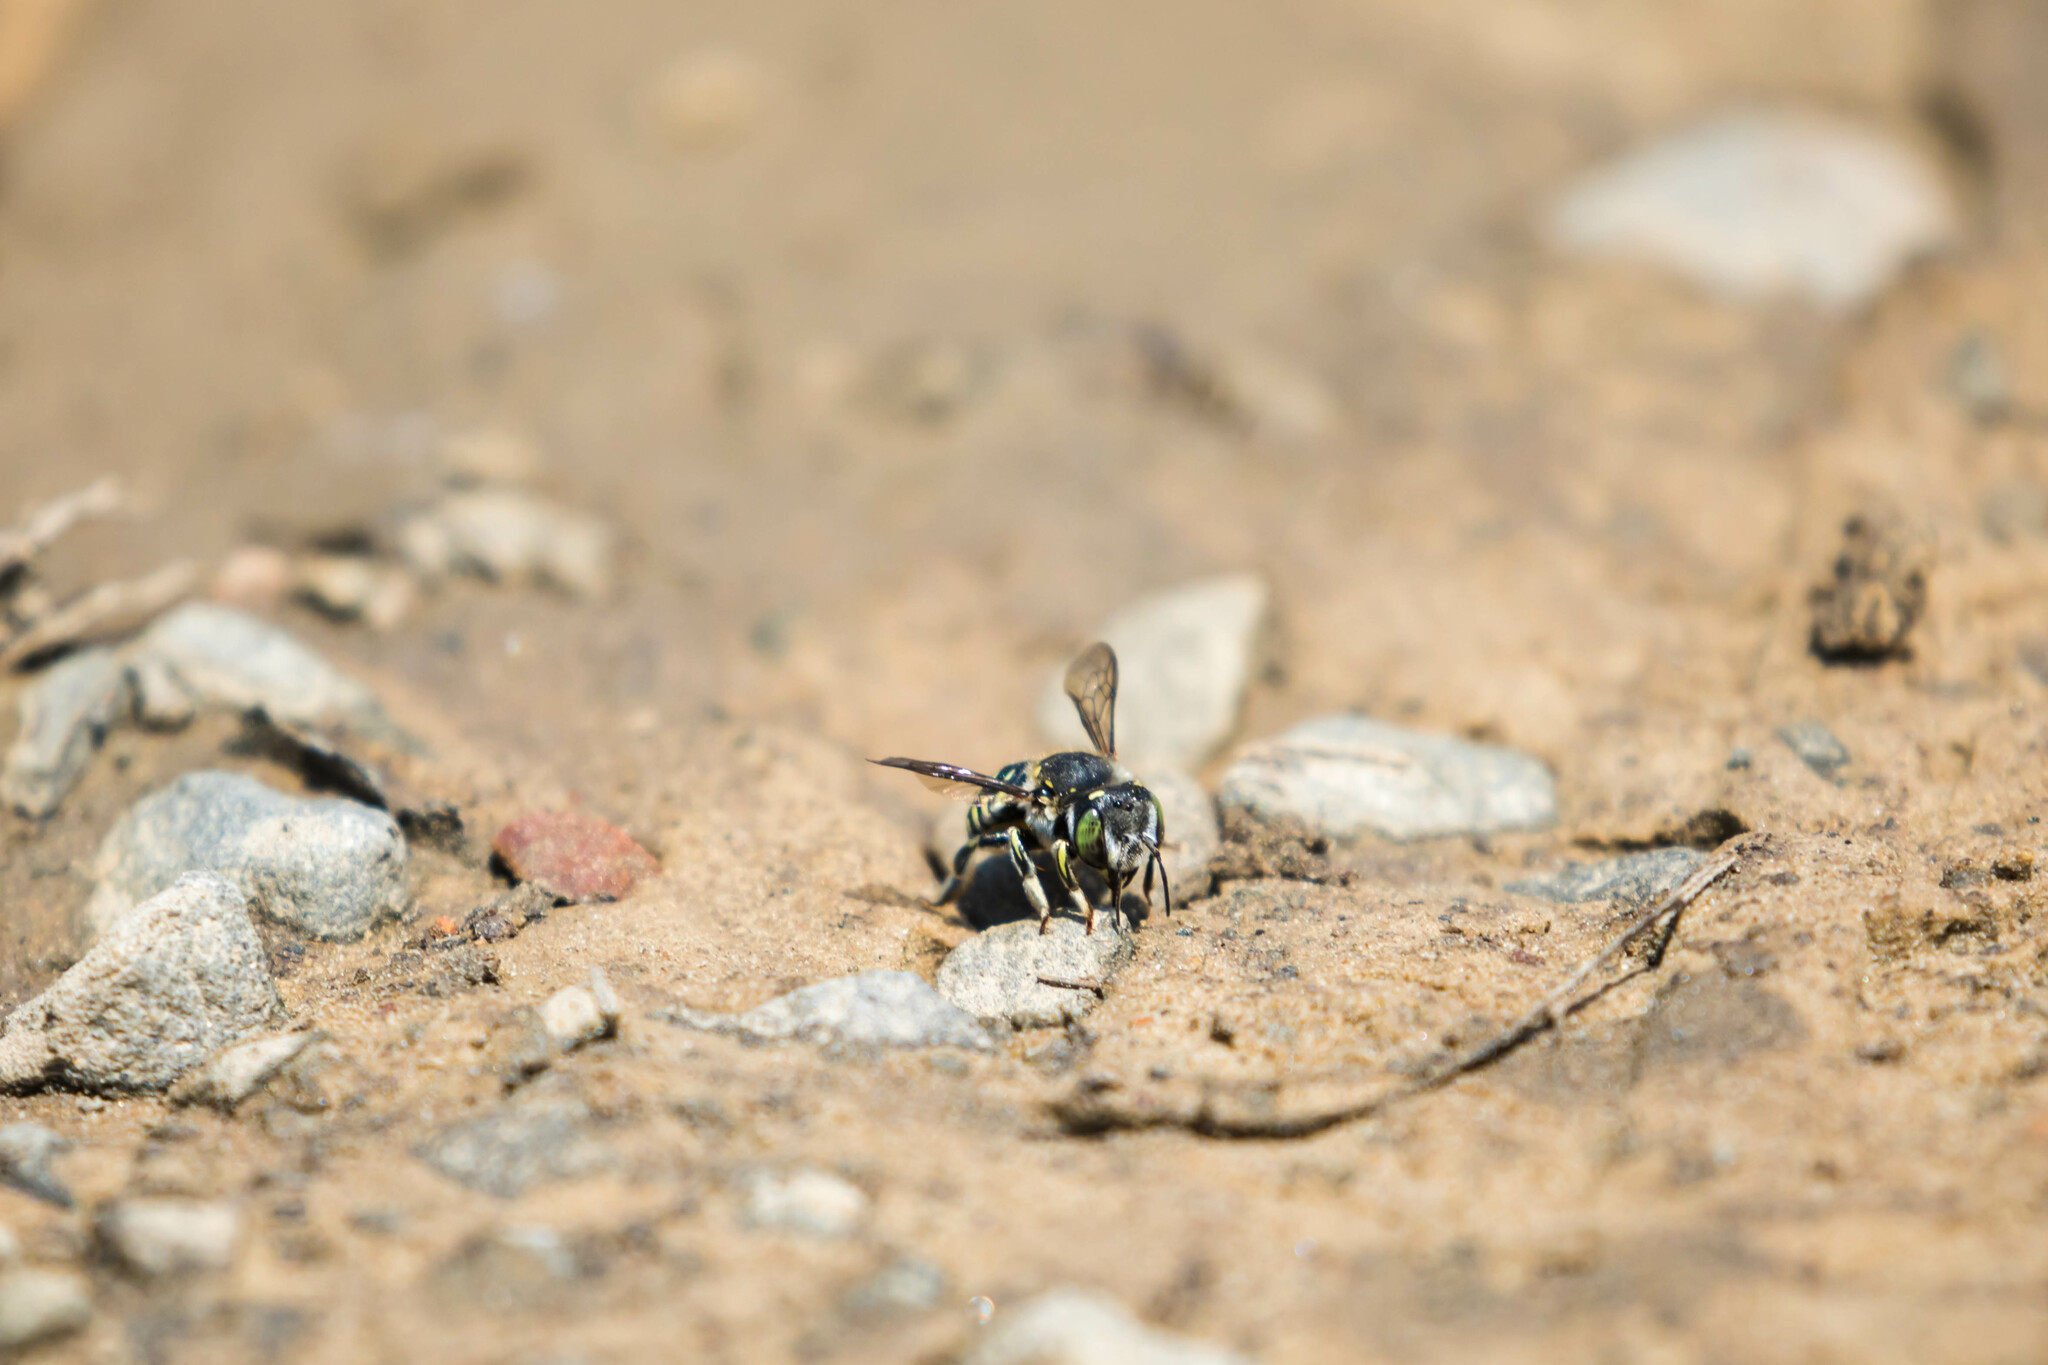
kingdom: Animalia
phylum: Arthropoda
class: Insecta
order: Hymenoptera
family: Megachilidae
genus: Anthidium
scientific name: Anthidium maculifrons
